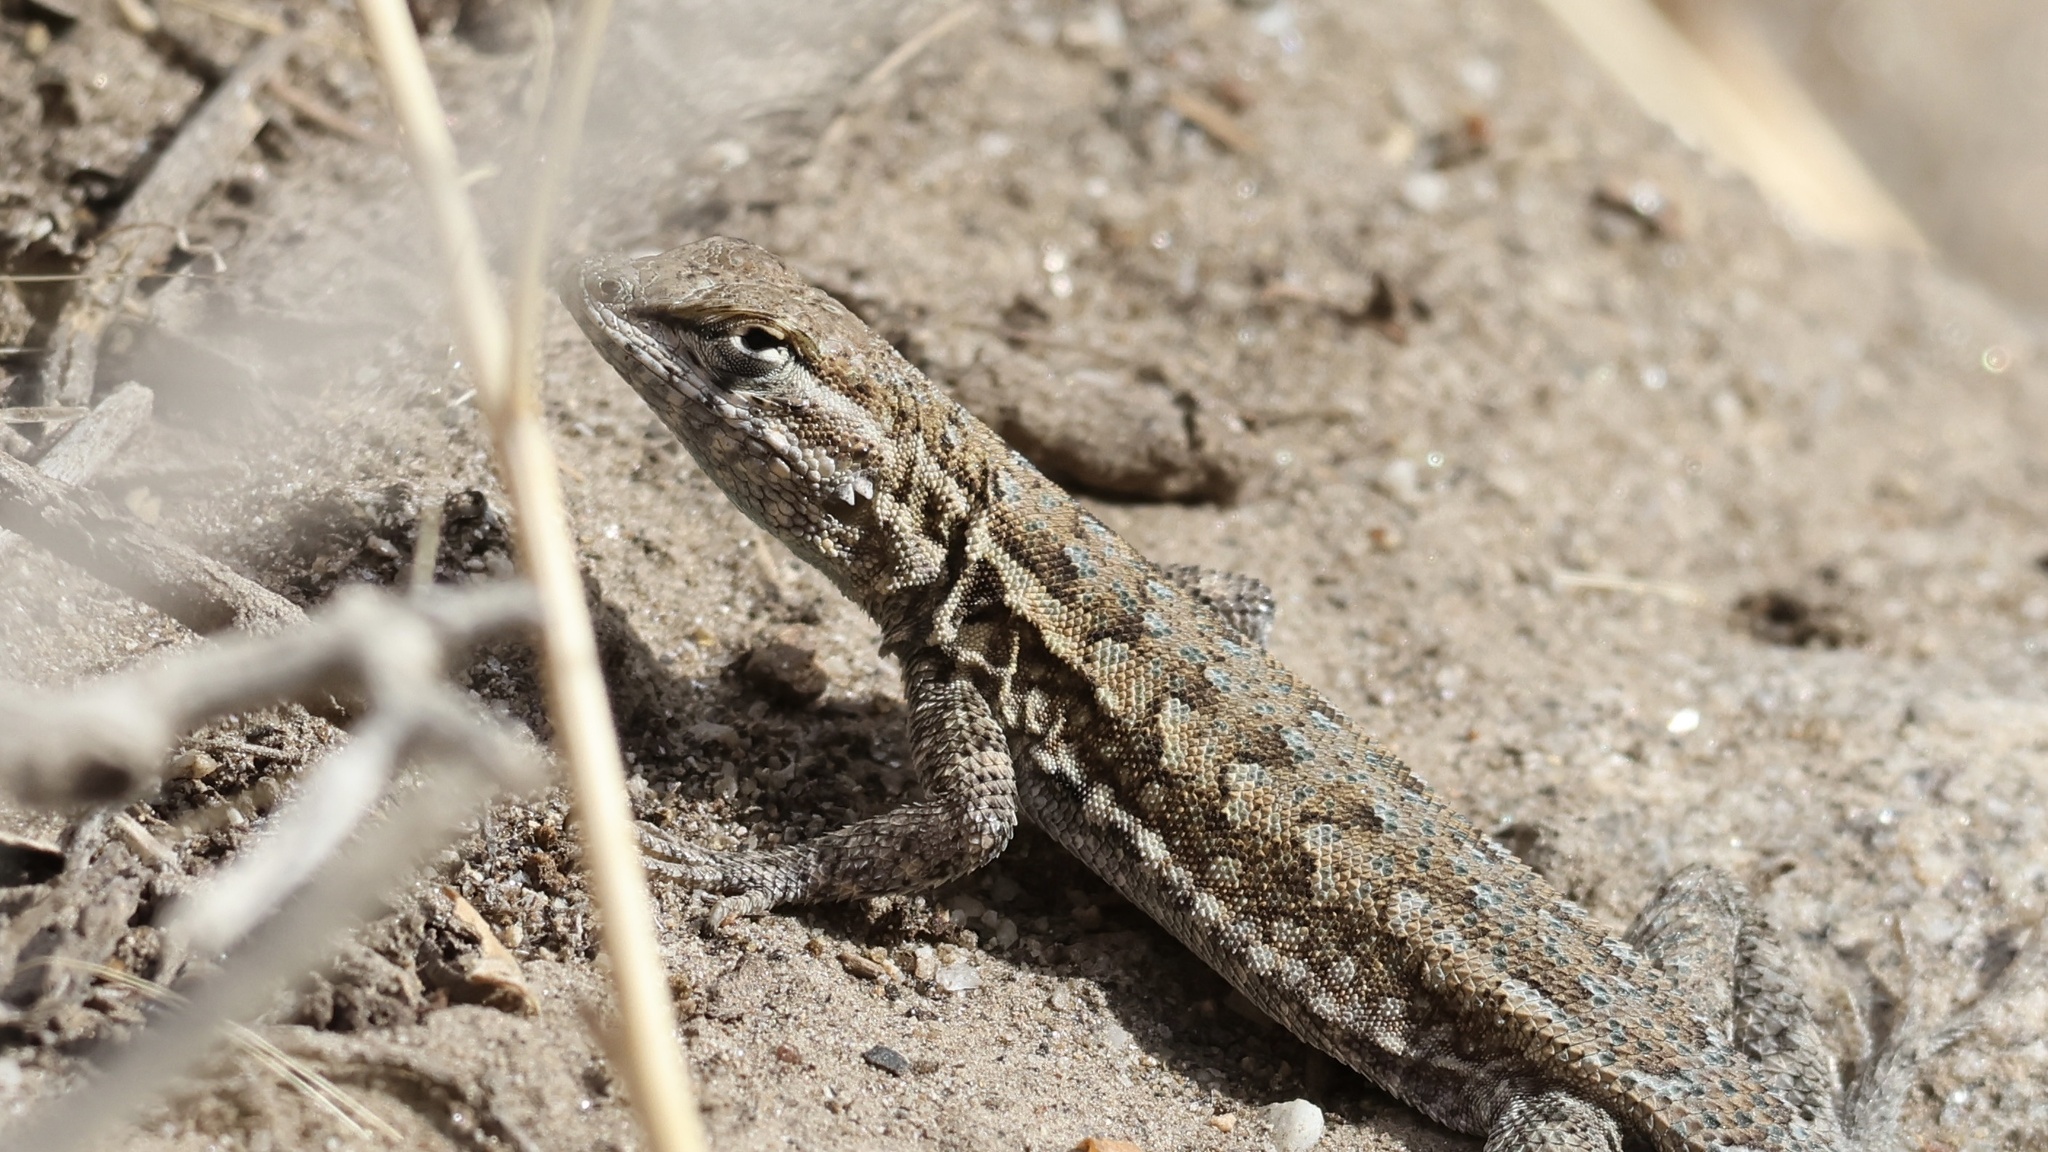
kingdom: Animalia
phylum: Chordata
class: Squamata
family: Phrynosomatidae
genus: Uta
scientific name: Uta stansburiana
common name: Side-blotched lizard
